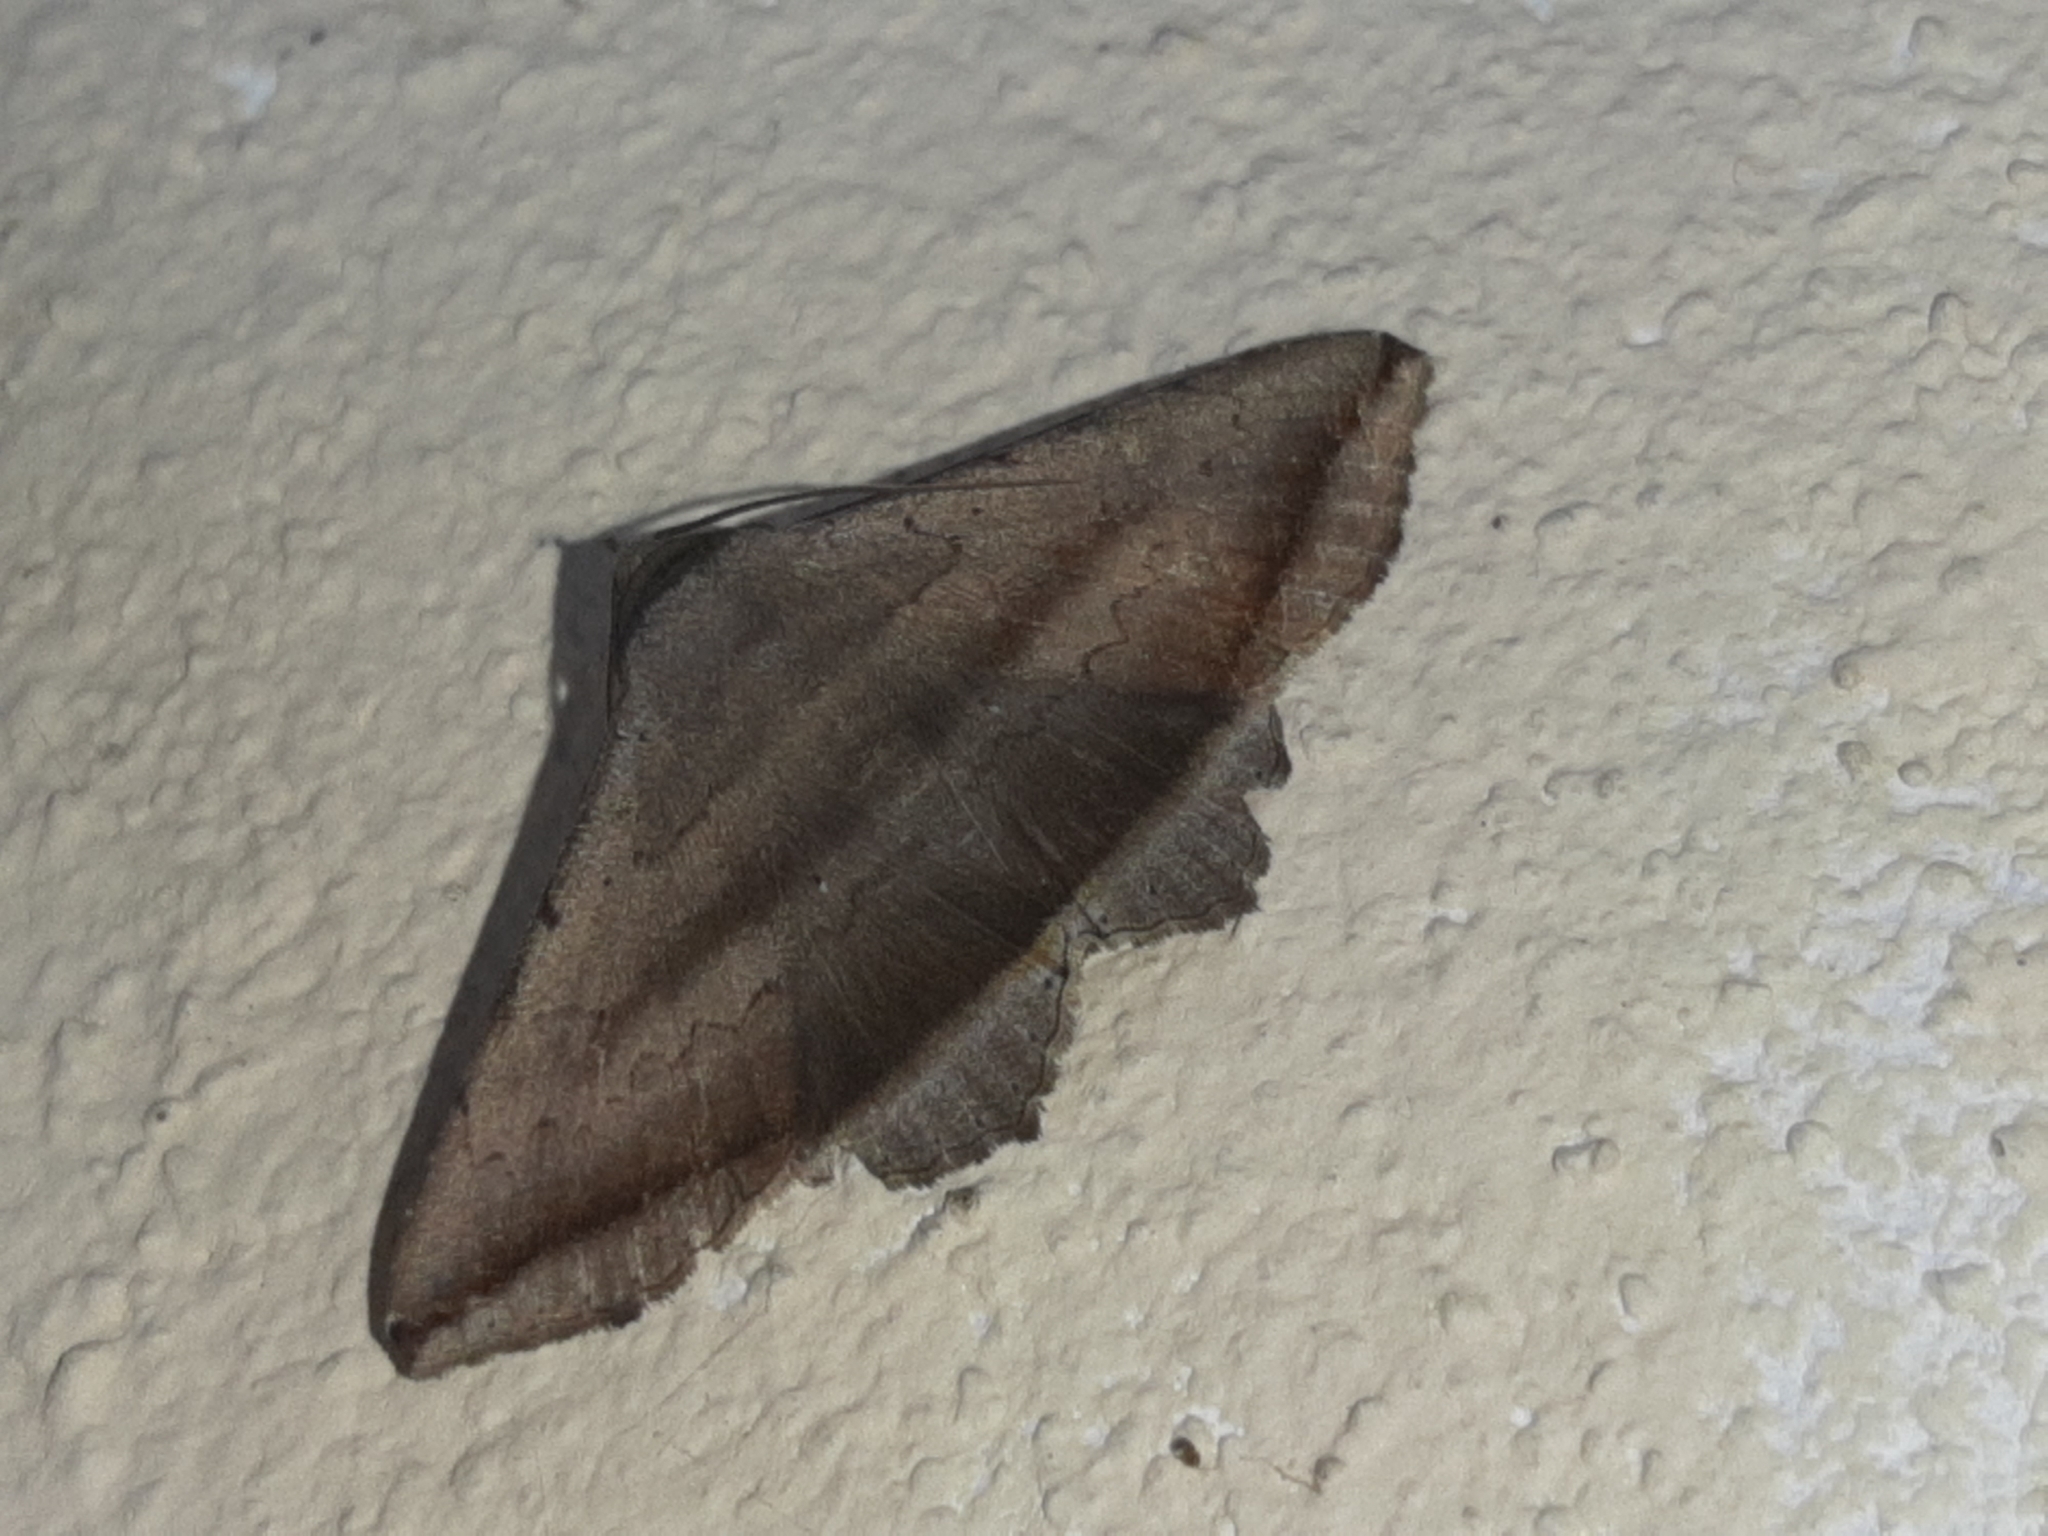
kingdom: Animalia
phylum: Arthropoda
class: Insecta
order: Lepidoptera
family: Erebidae
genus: Lesmone
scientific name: Lesmone formularis
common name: Lesmone moth
